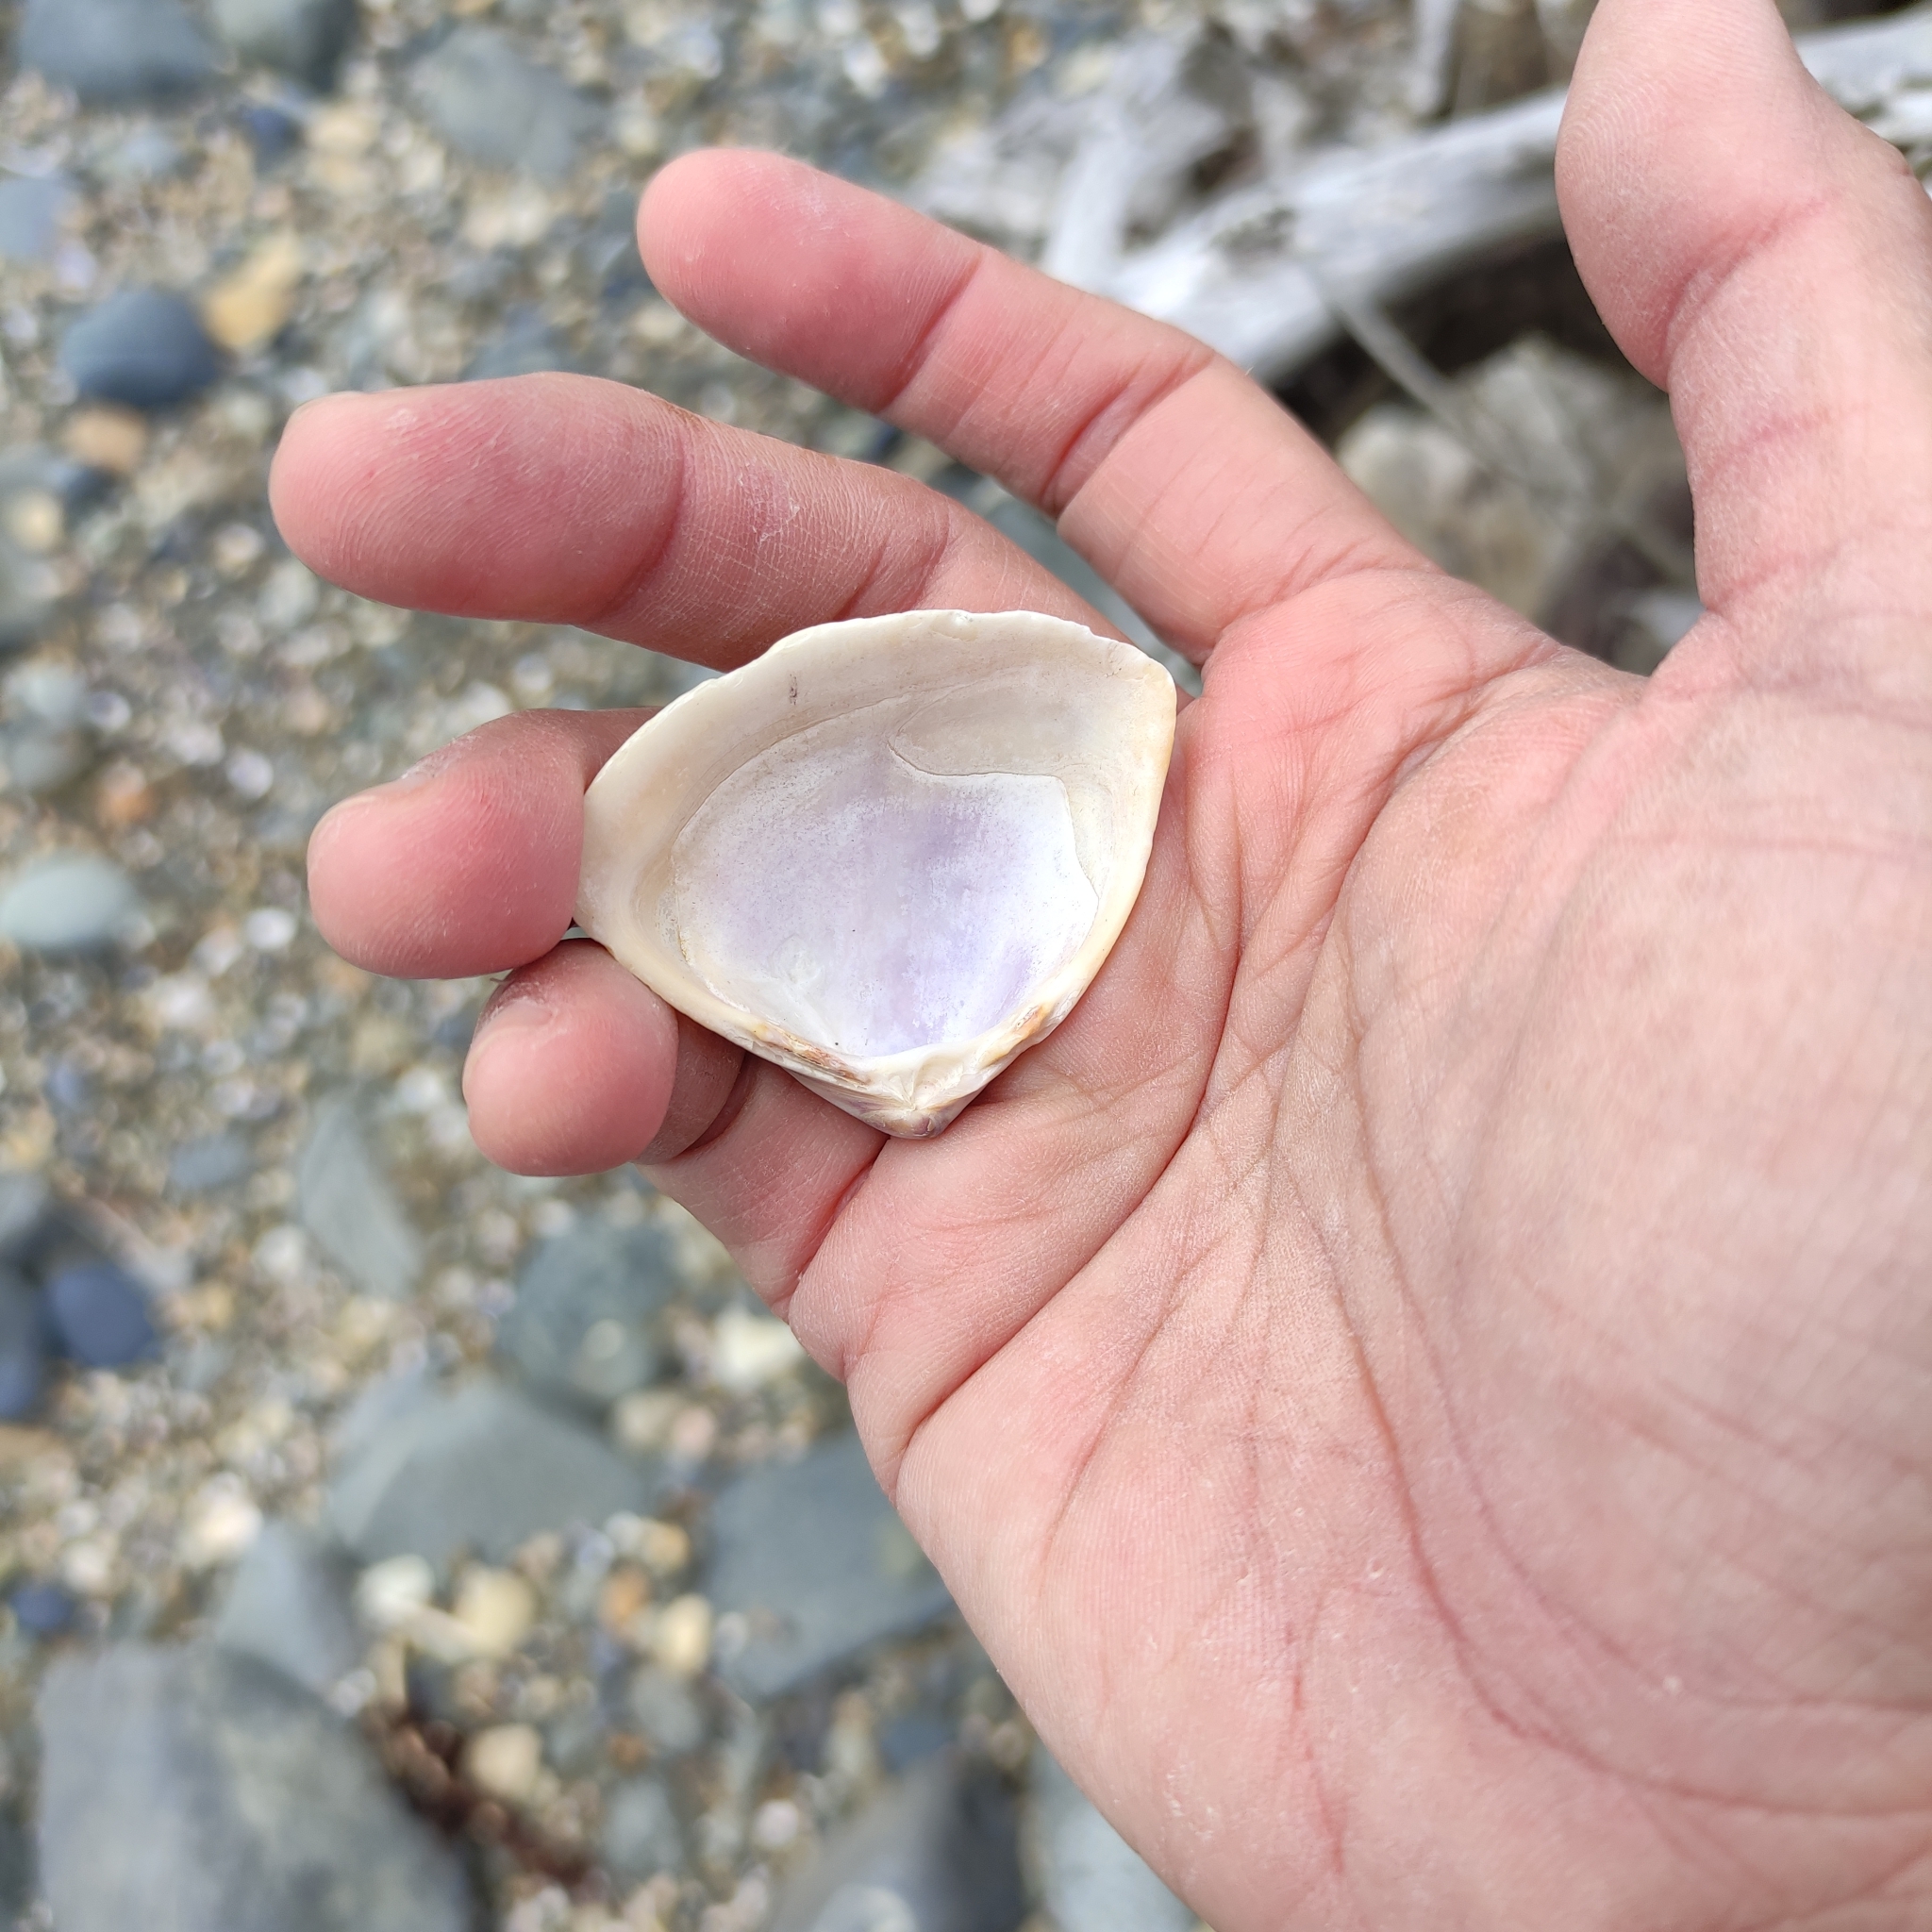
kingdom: Animalia
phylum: Mollusca
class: Bivalvia
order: Venerida
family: Mactridae
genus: Crassula
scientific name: Crassula aequilatera
